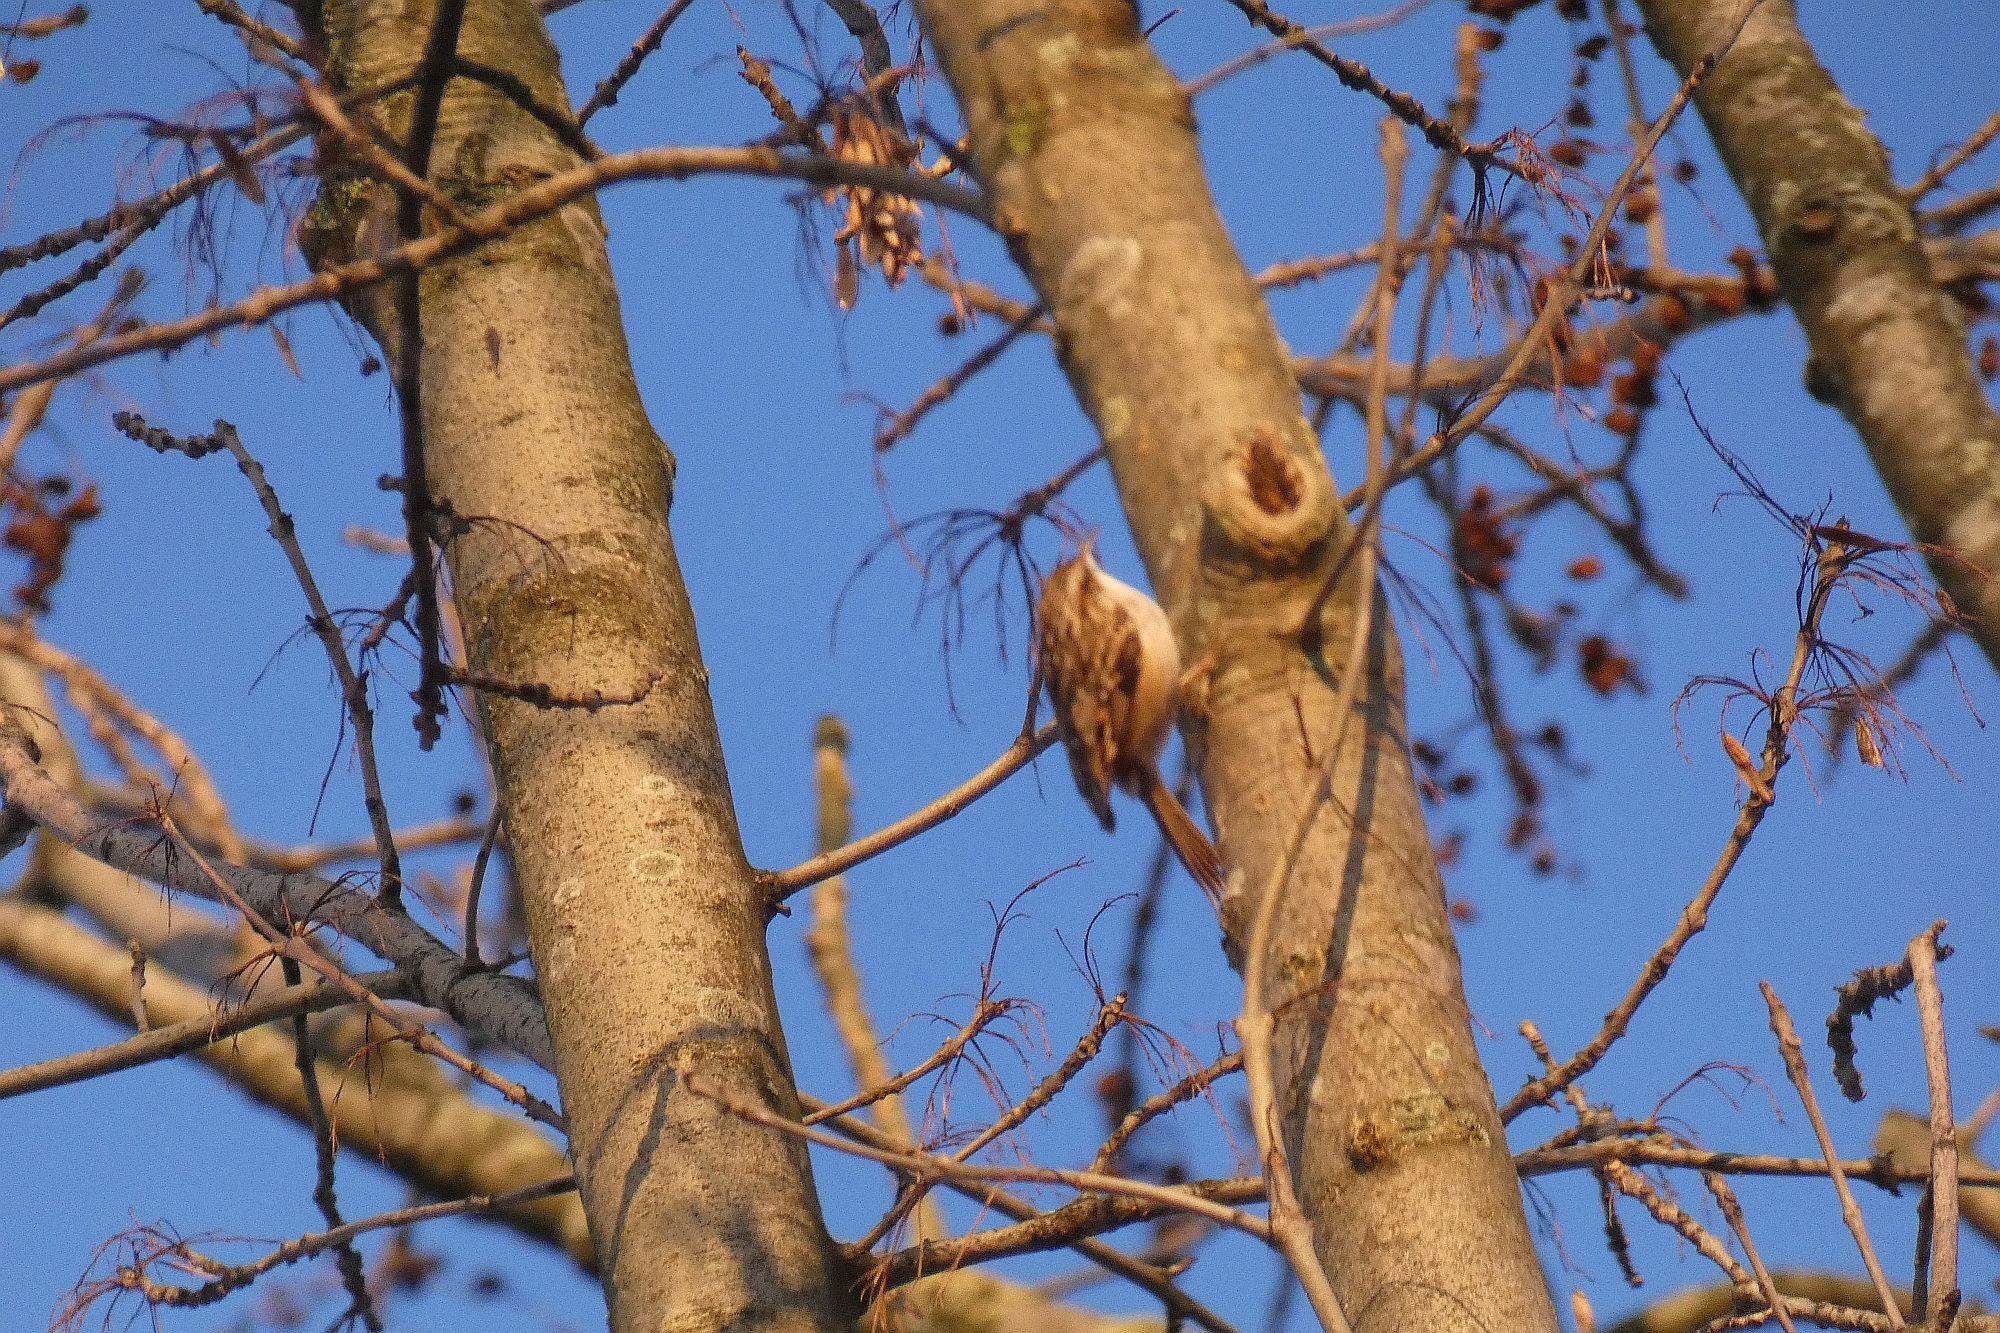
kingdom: Animalia
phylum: Chordata
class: Aves
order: Passeriformes
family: Certhiidae
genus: Certhia
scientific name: Certhia brachydactyla
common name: Short-toed treecreeper
